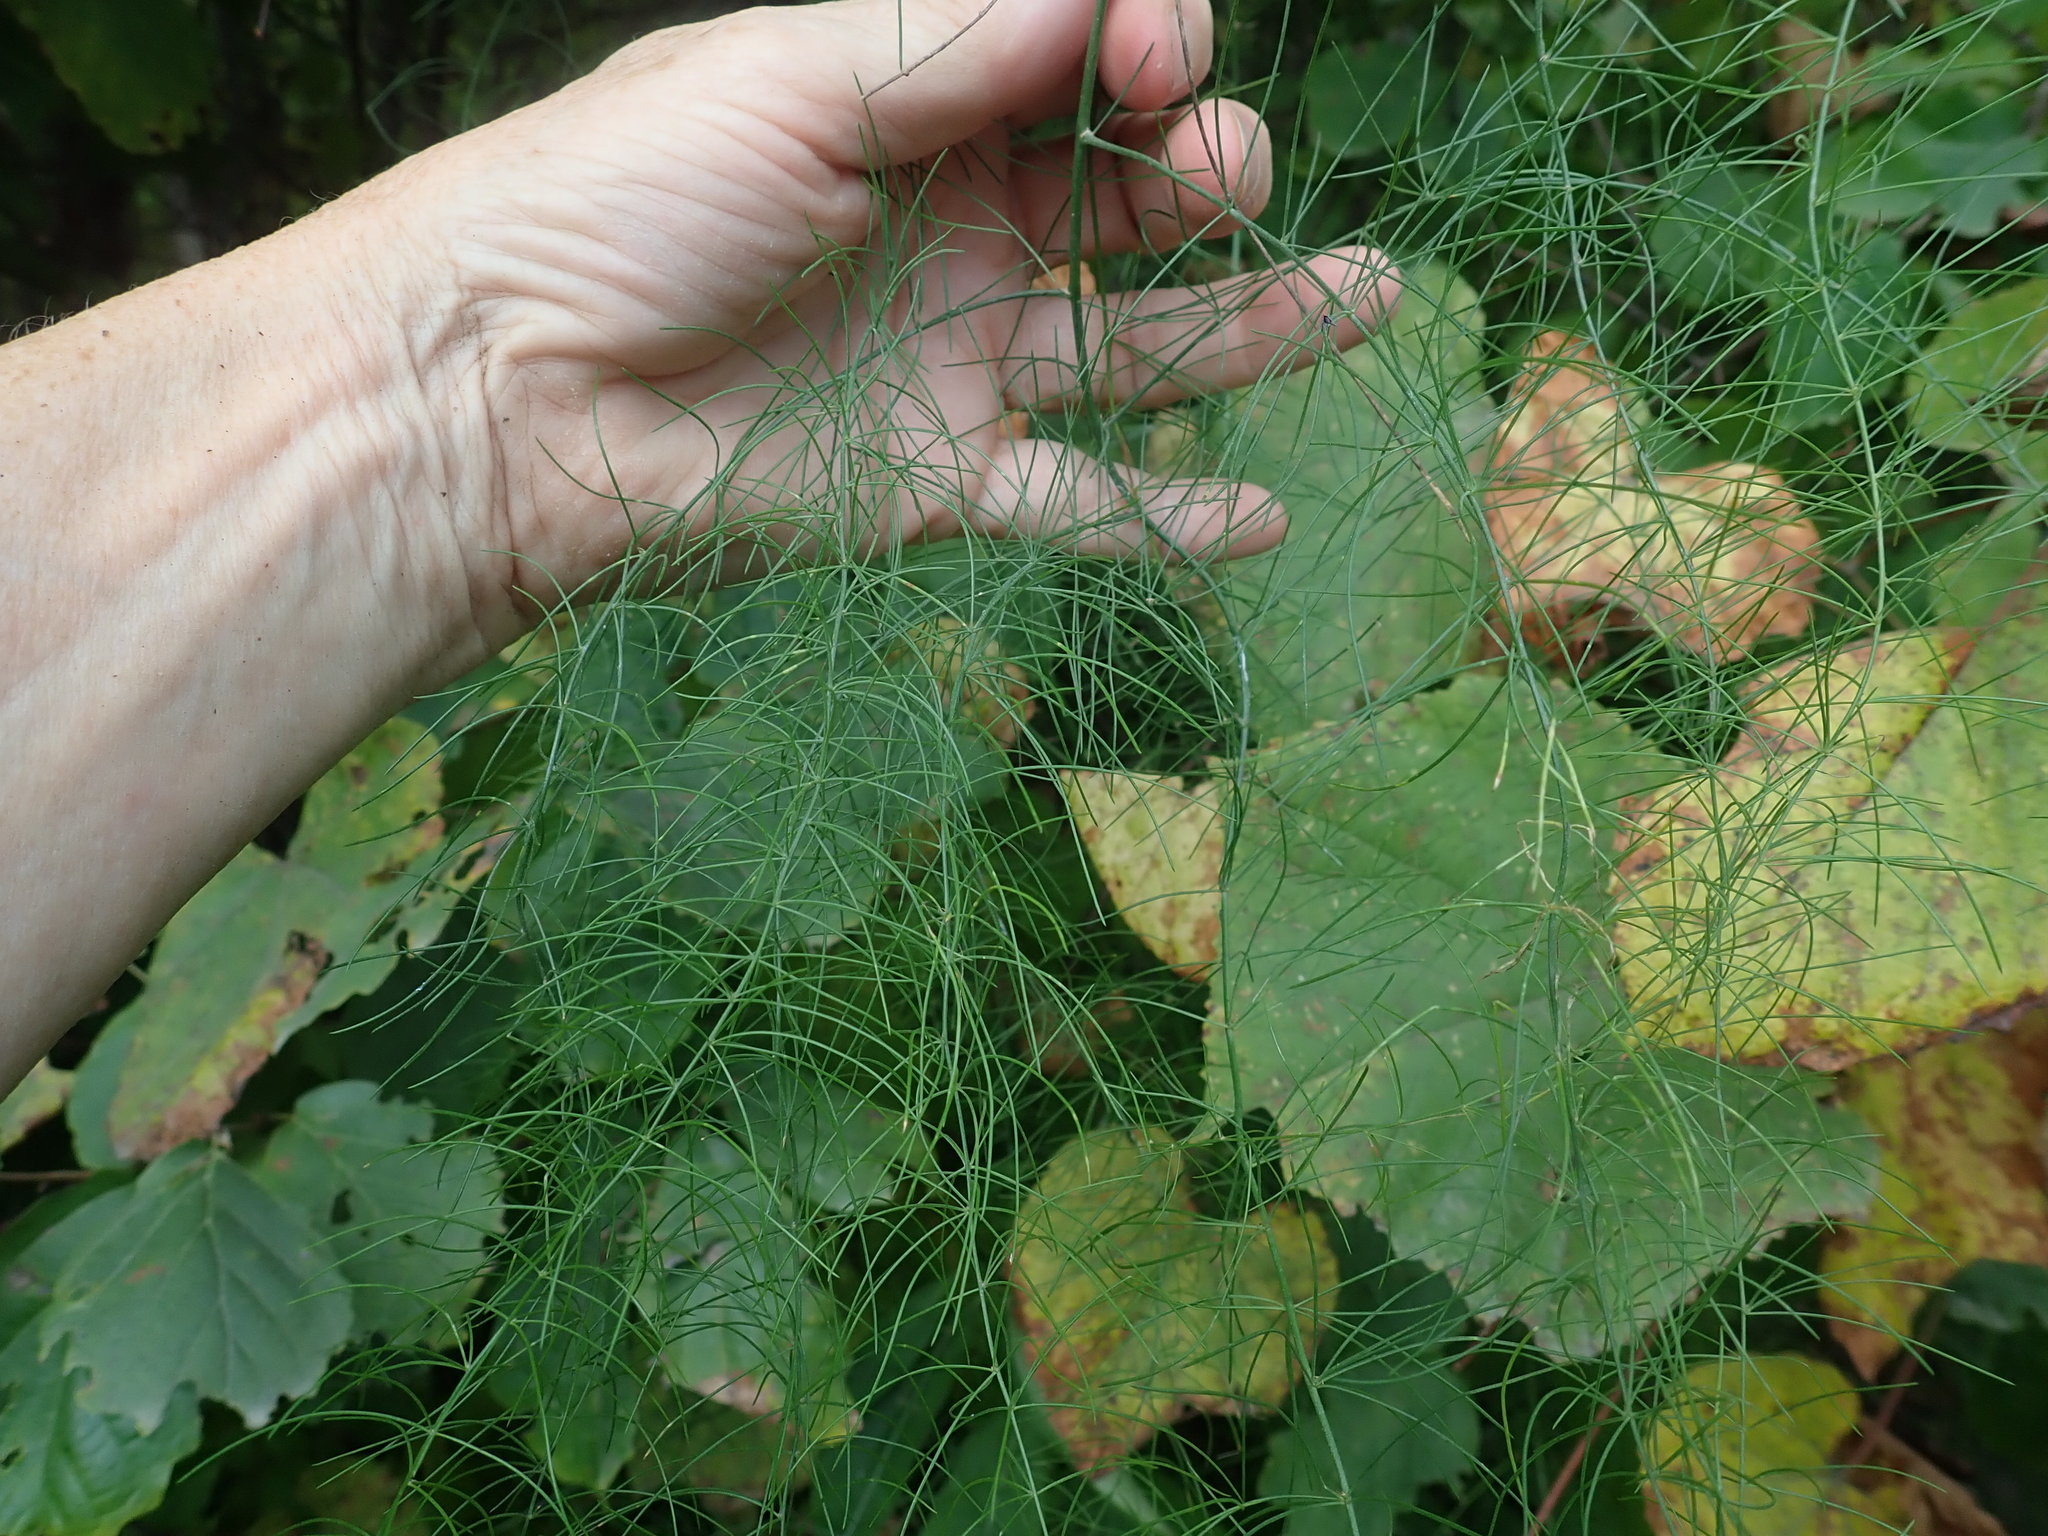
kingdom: Plantae
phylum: Tracheophyta
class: Liliopsida
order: Asparagales
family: Asparagaceae
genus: Asparagus
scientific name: Asparagus officinalis
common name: Garden asparagus
